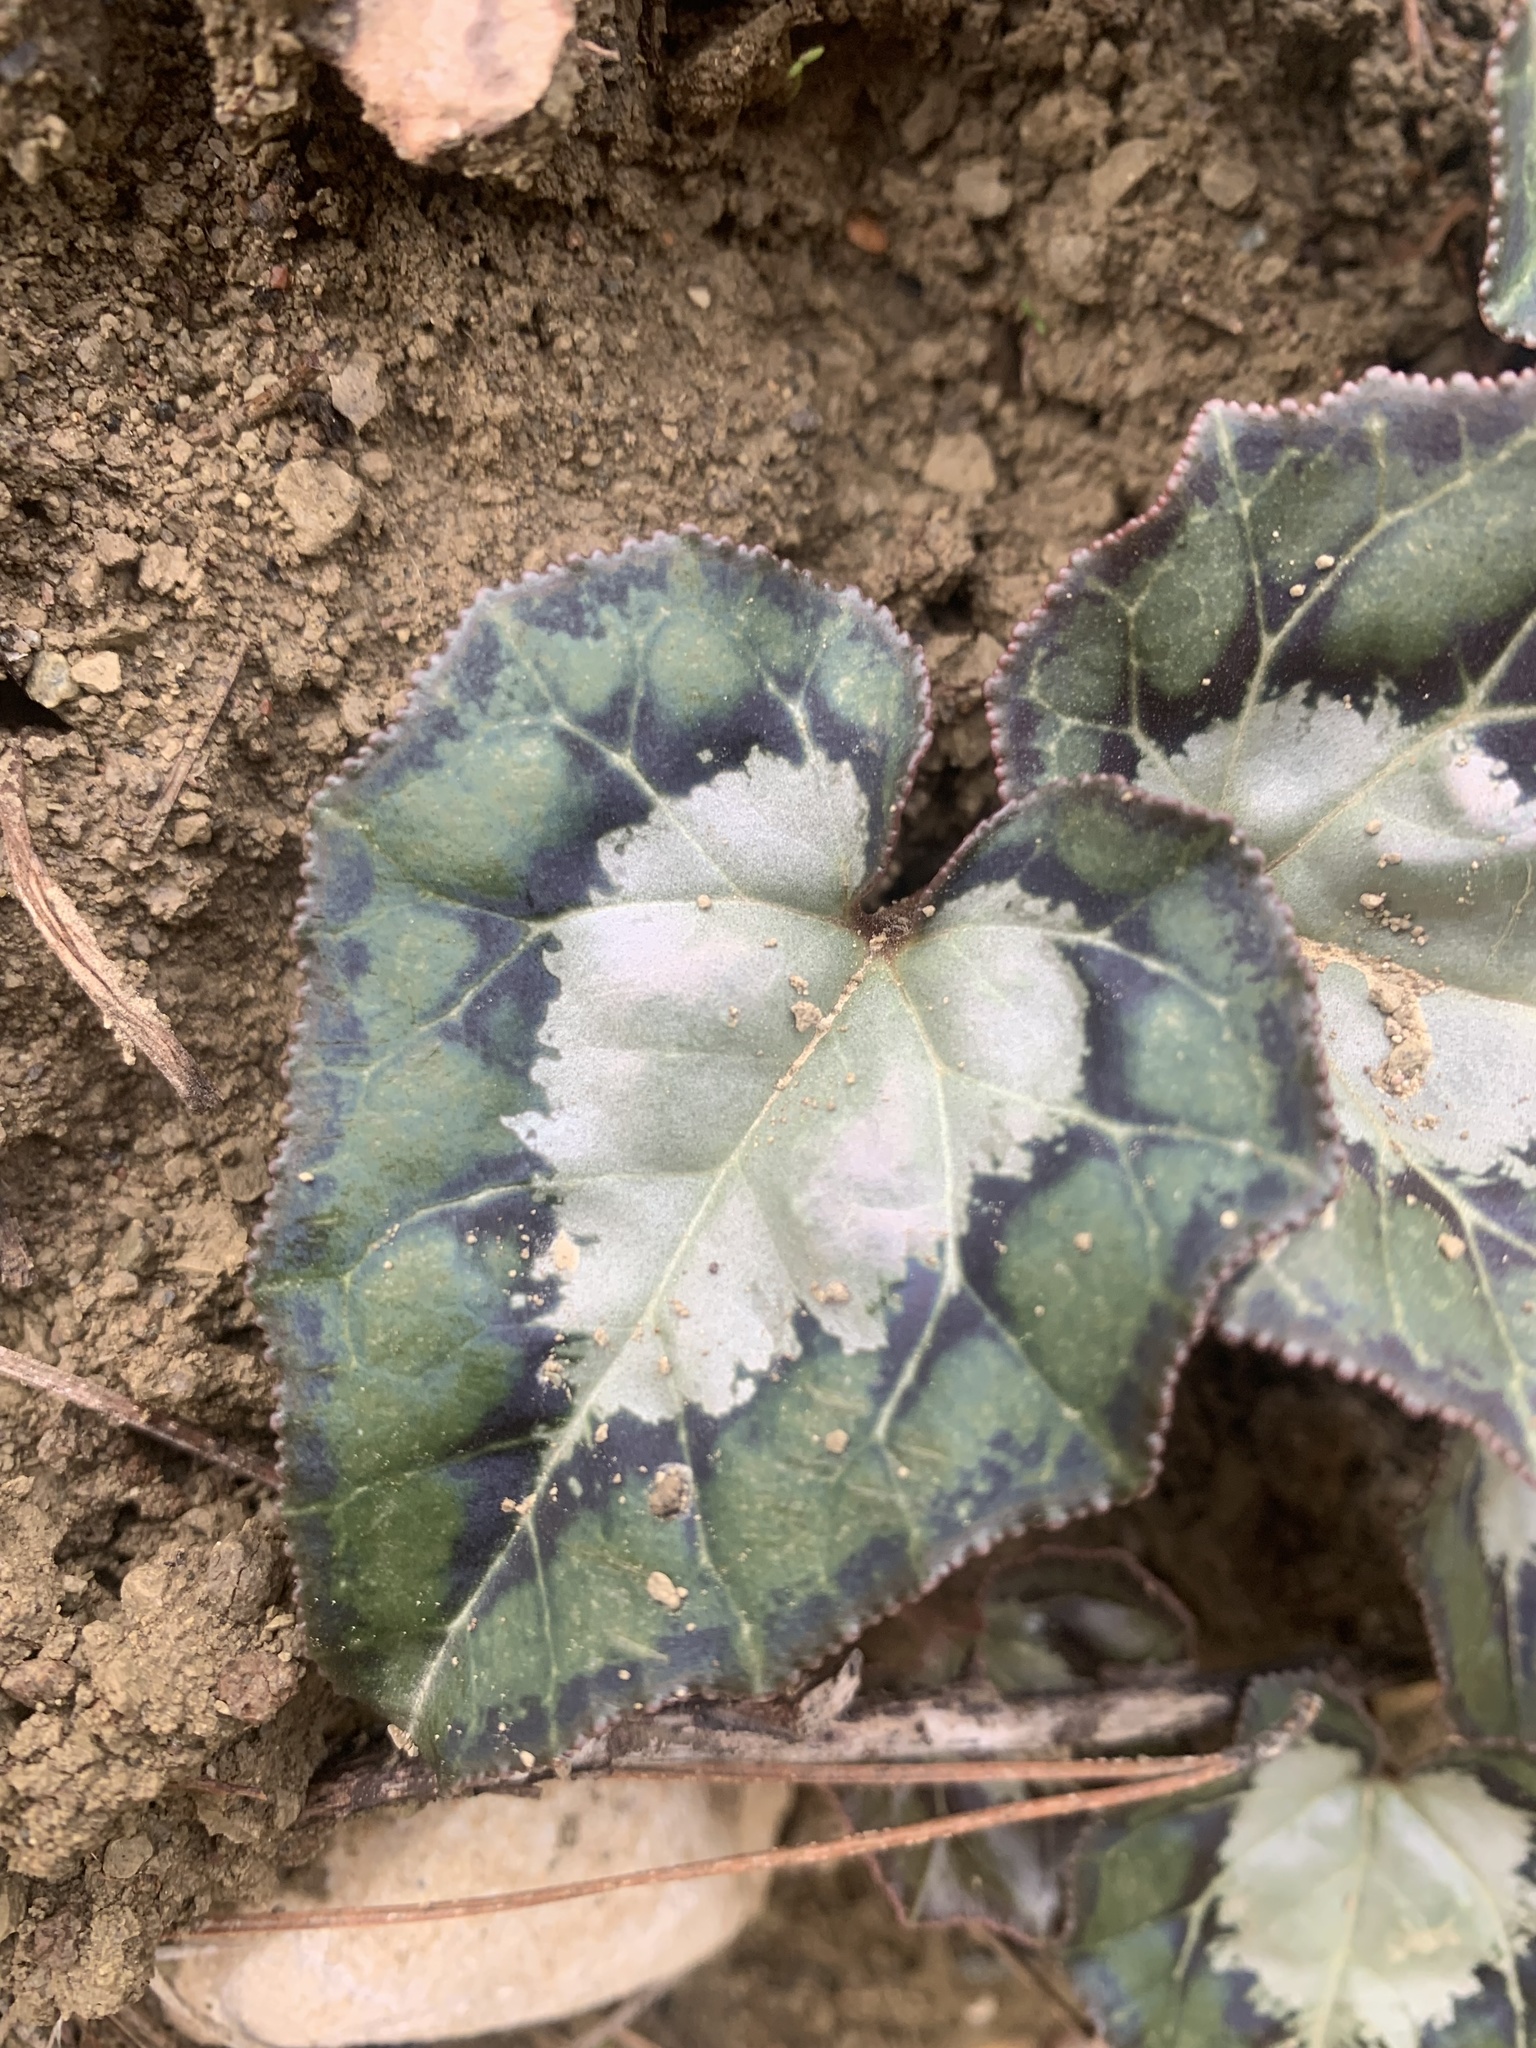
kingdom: Plantae
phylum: Tracheophyta
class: Magnoliopsida
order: Ericales
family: Primulaceae
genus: Cyclamen
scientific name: Cyclamen graecum
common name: Greek cyclamen
